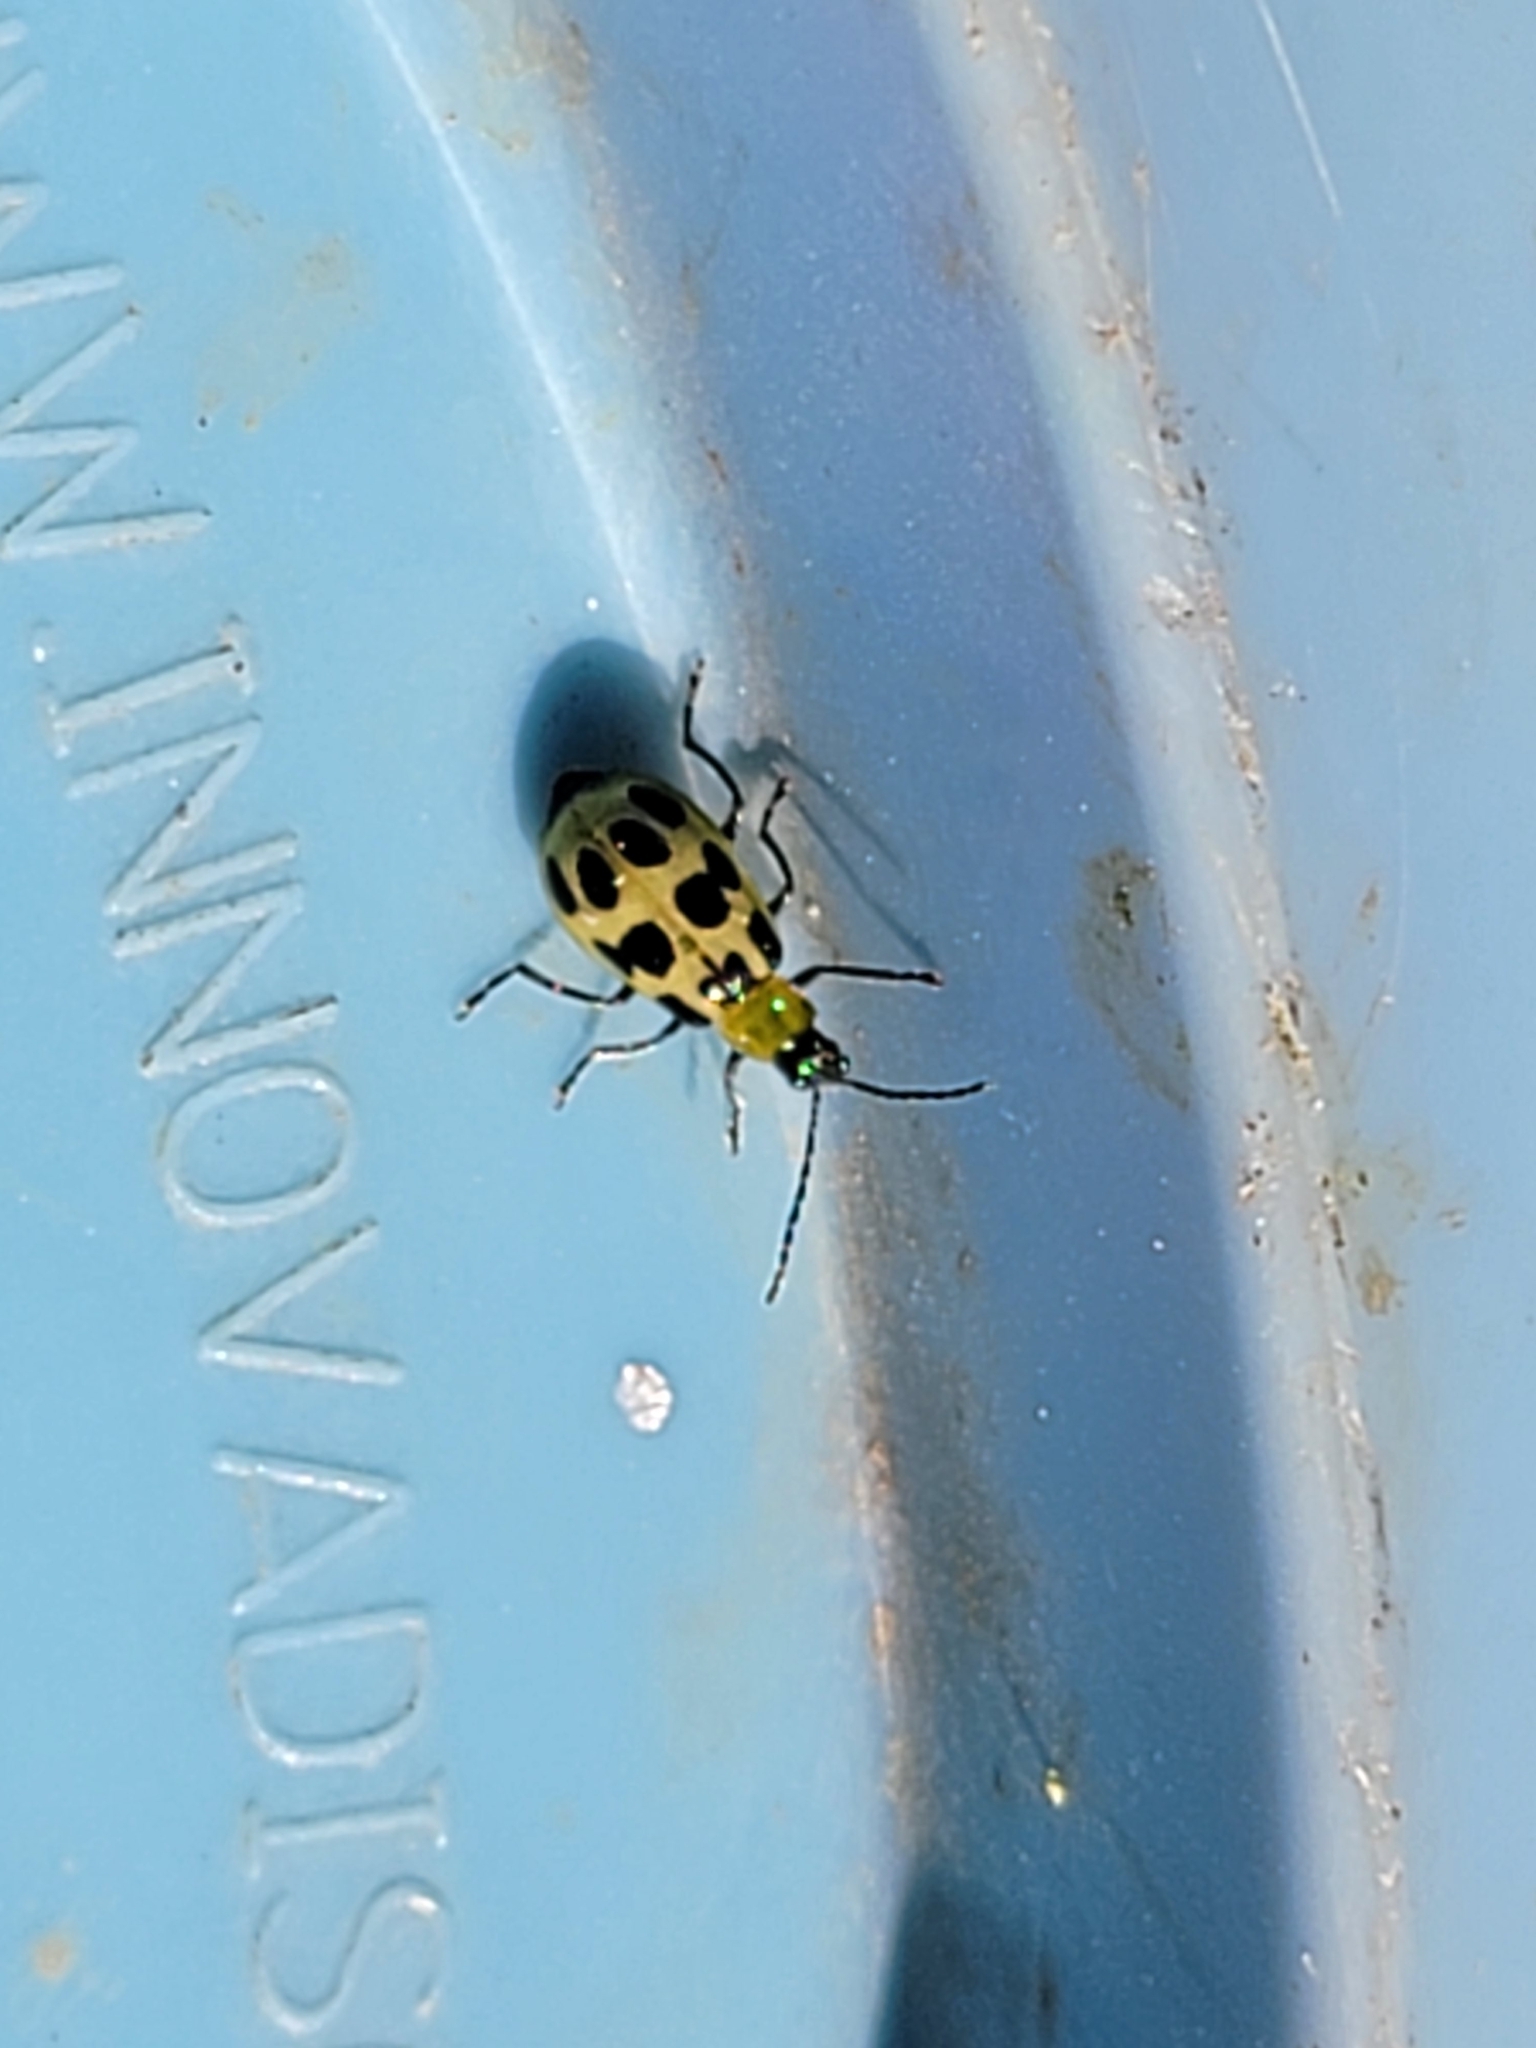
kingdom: Animalia
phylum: Arthropoda
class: Insecta
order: Coleoptera
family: Chrysomelidae
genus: Diabrotica
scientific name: Diabrotica undecimpunctata
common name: Spotted cucumber beetle
